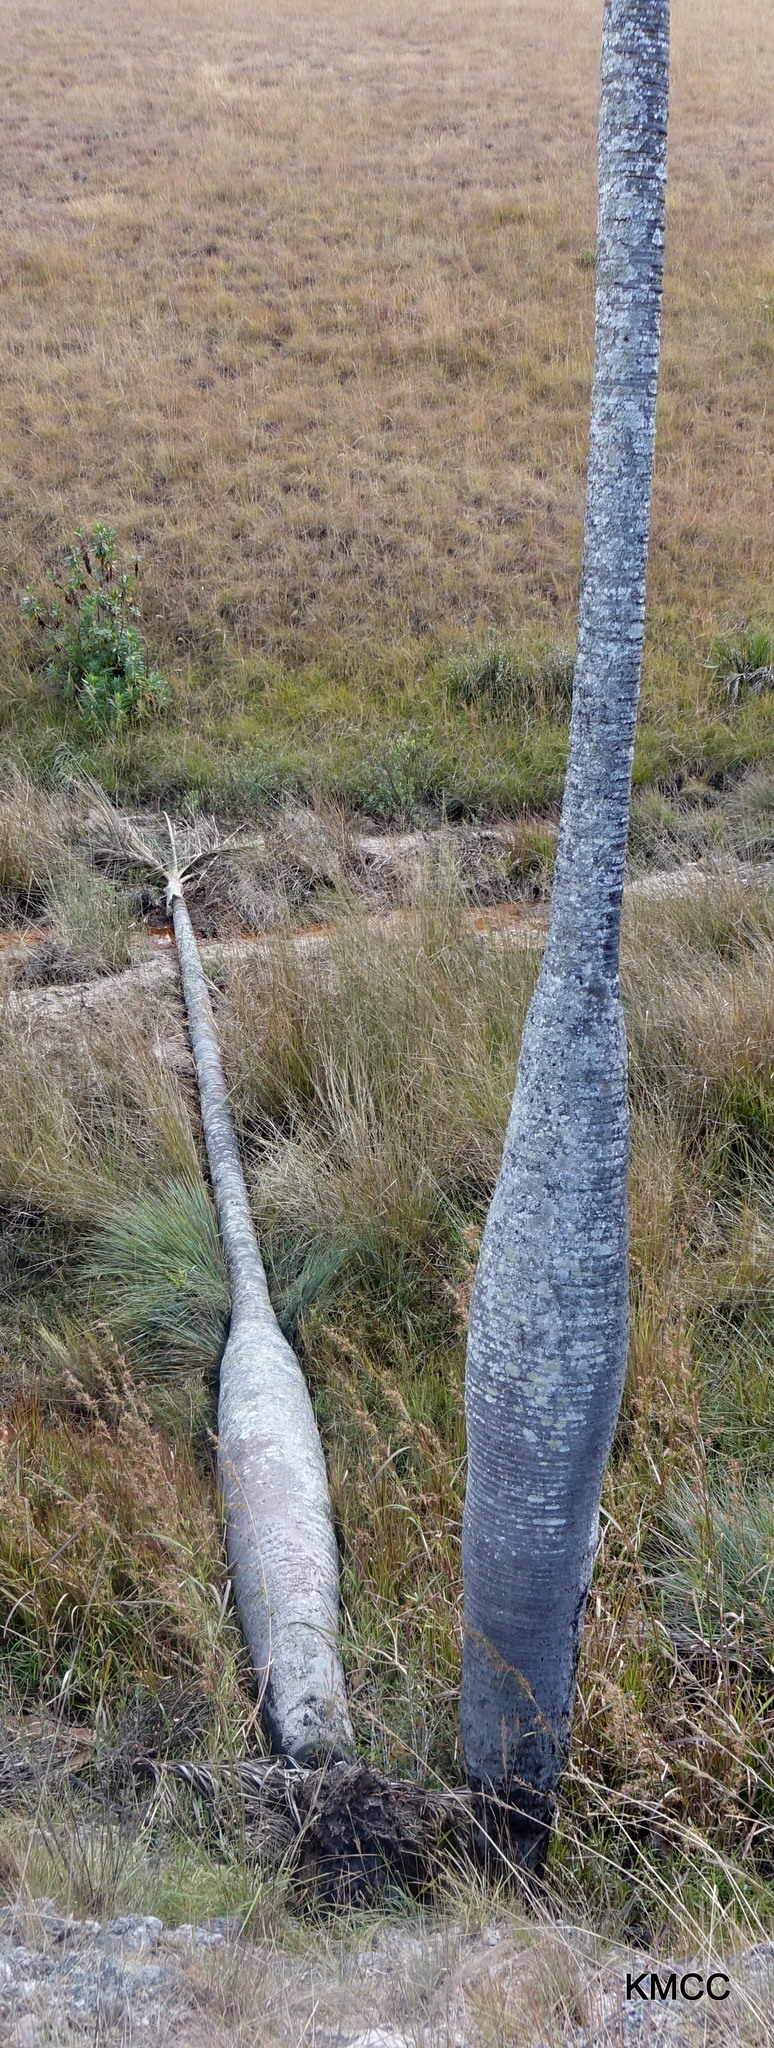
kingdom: Plantae
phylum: Tracheophyta
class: Liliopsida
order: Arecales
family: Arecaceae
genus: Dypsis
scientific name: Dypsis decipiens
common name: Manambe palm
